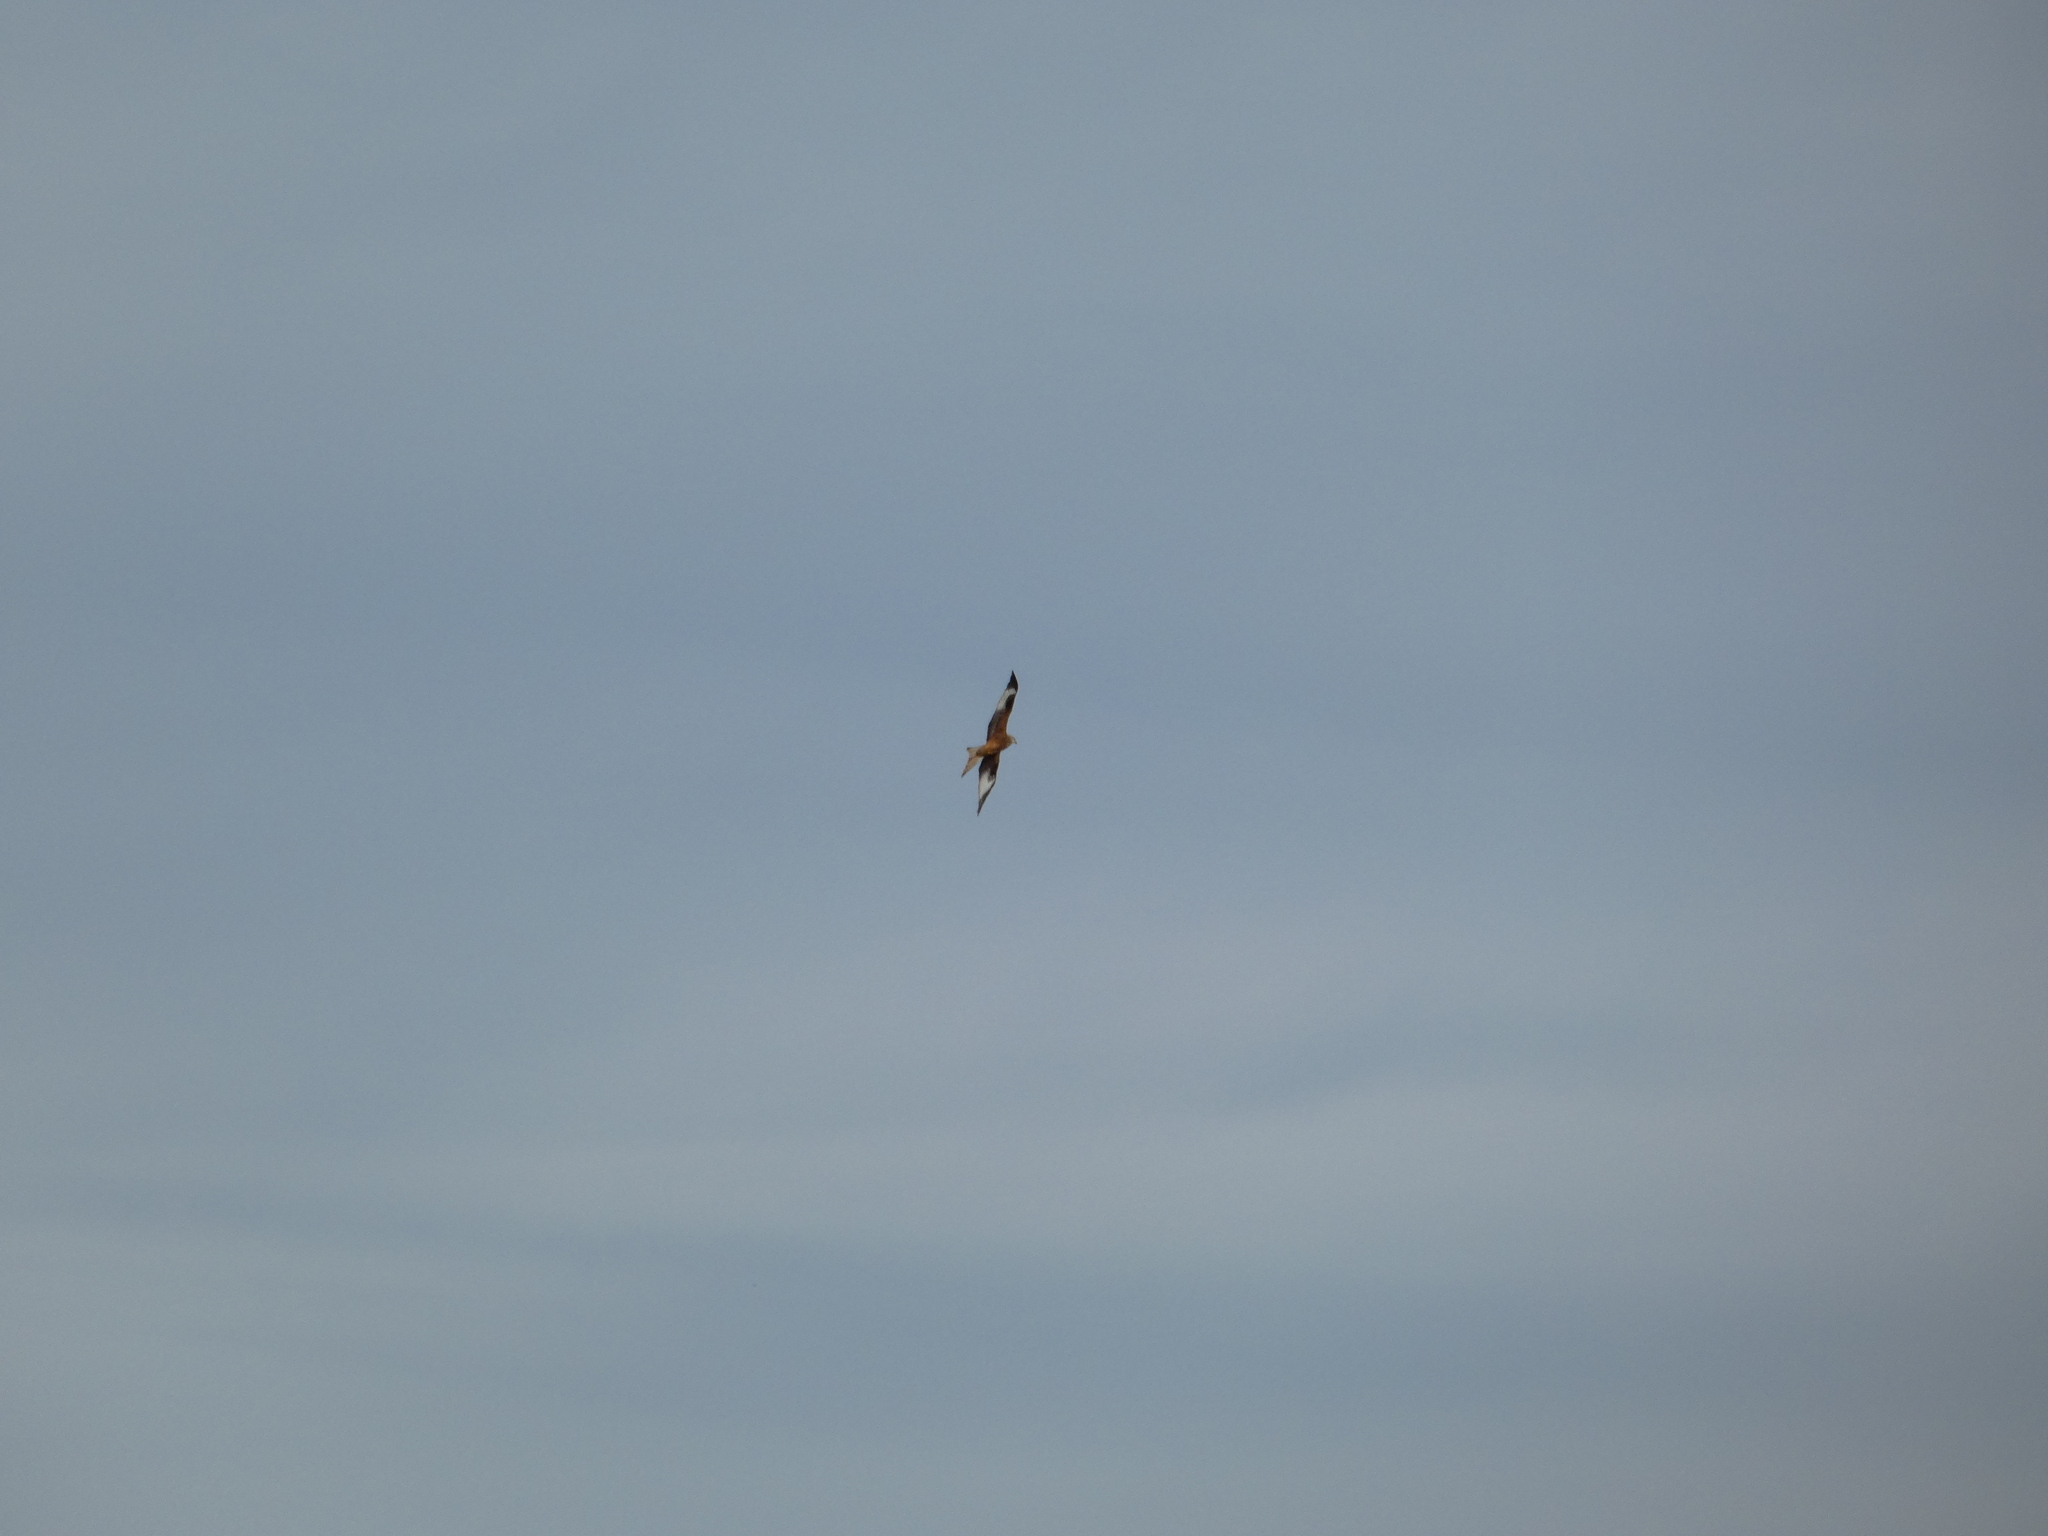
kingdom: Animalia
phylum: Chordata
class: Aves
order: Accipitriformes
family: Accipitridae
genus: Milvus
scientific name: Milvus milvus
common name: Red kite
